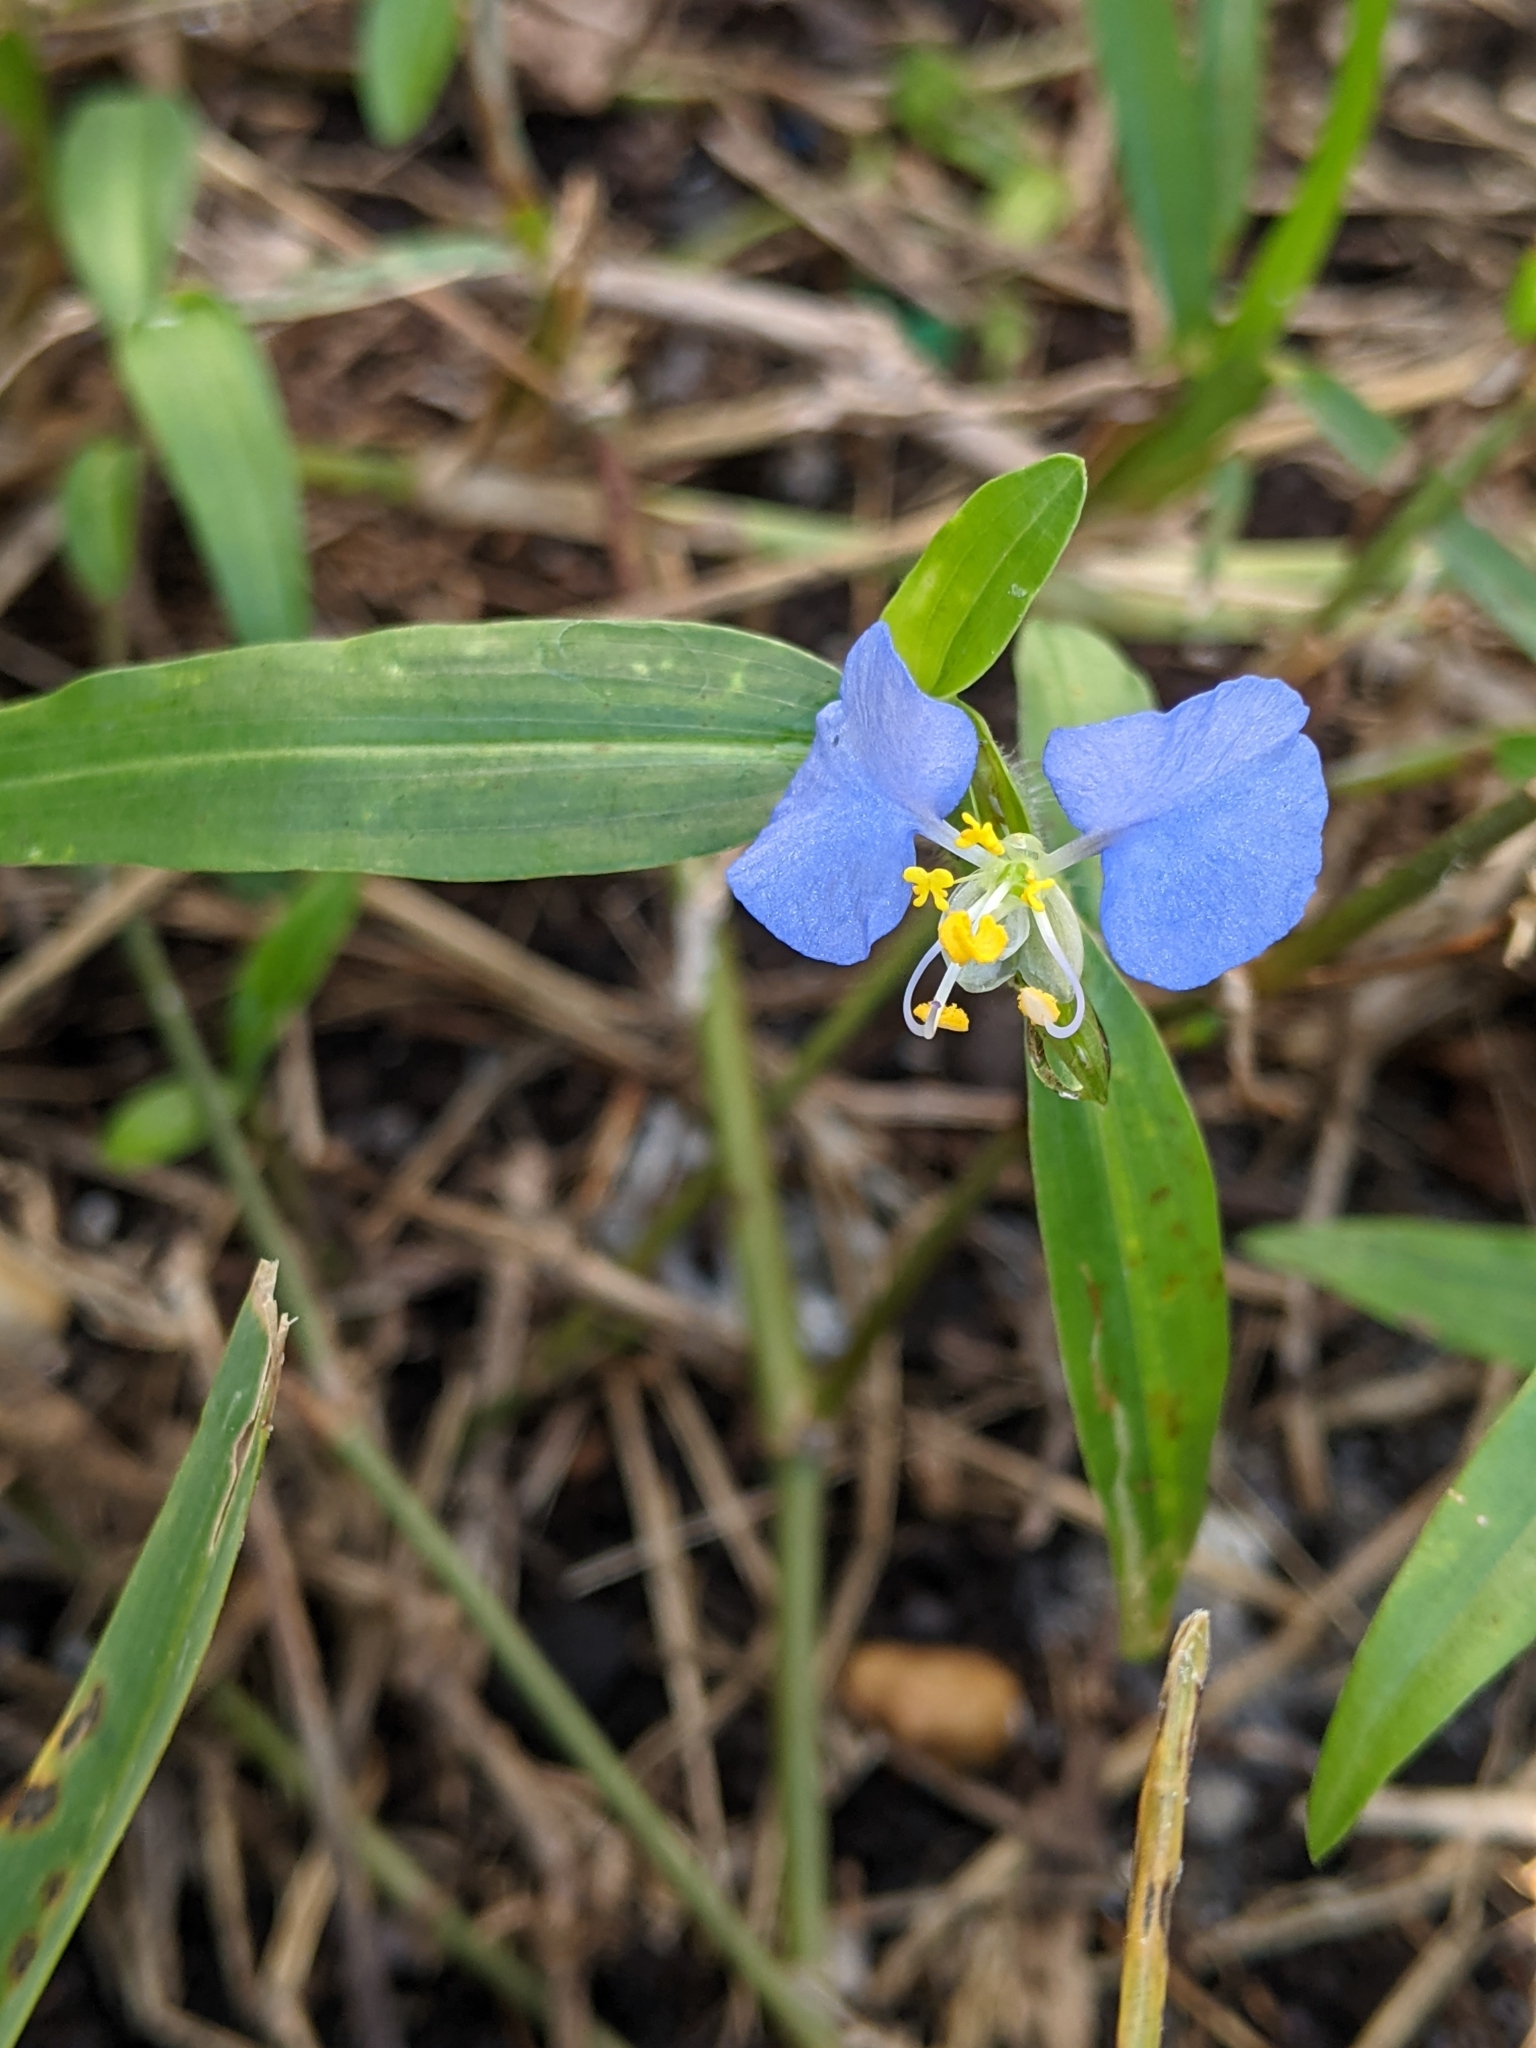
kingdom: Plantae
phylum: Tracheophyta
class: Liliopsida
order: Commelinales
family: Commelinaceae
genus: Commelina
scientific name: Commelina erecta
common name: Blousel blommetjie
